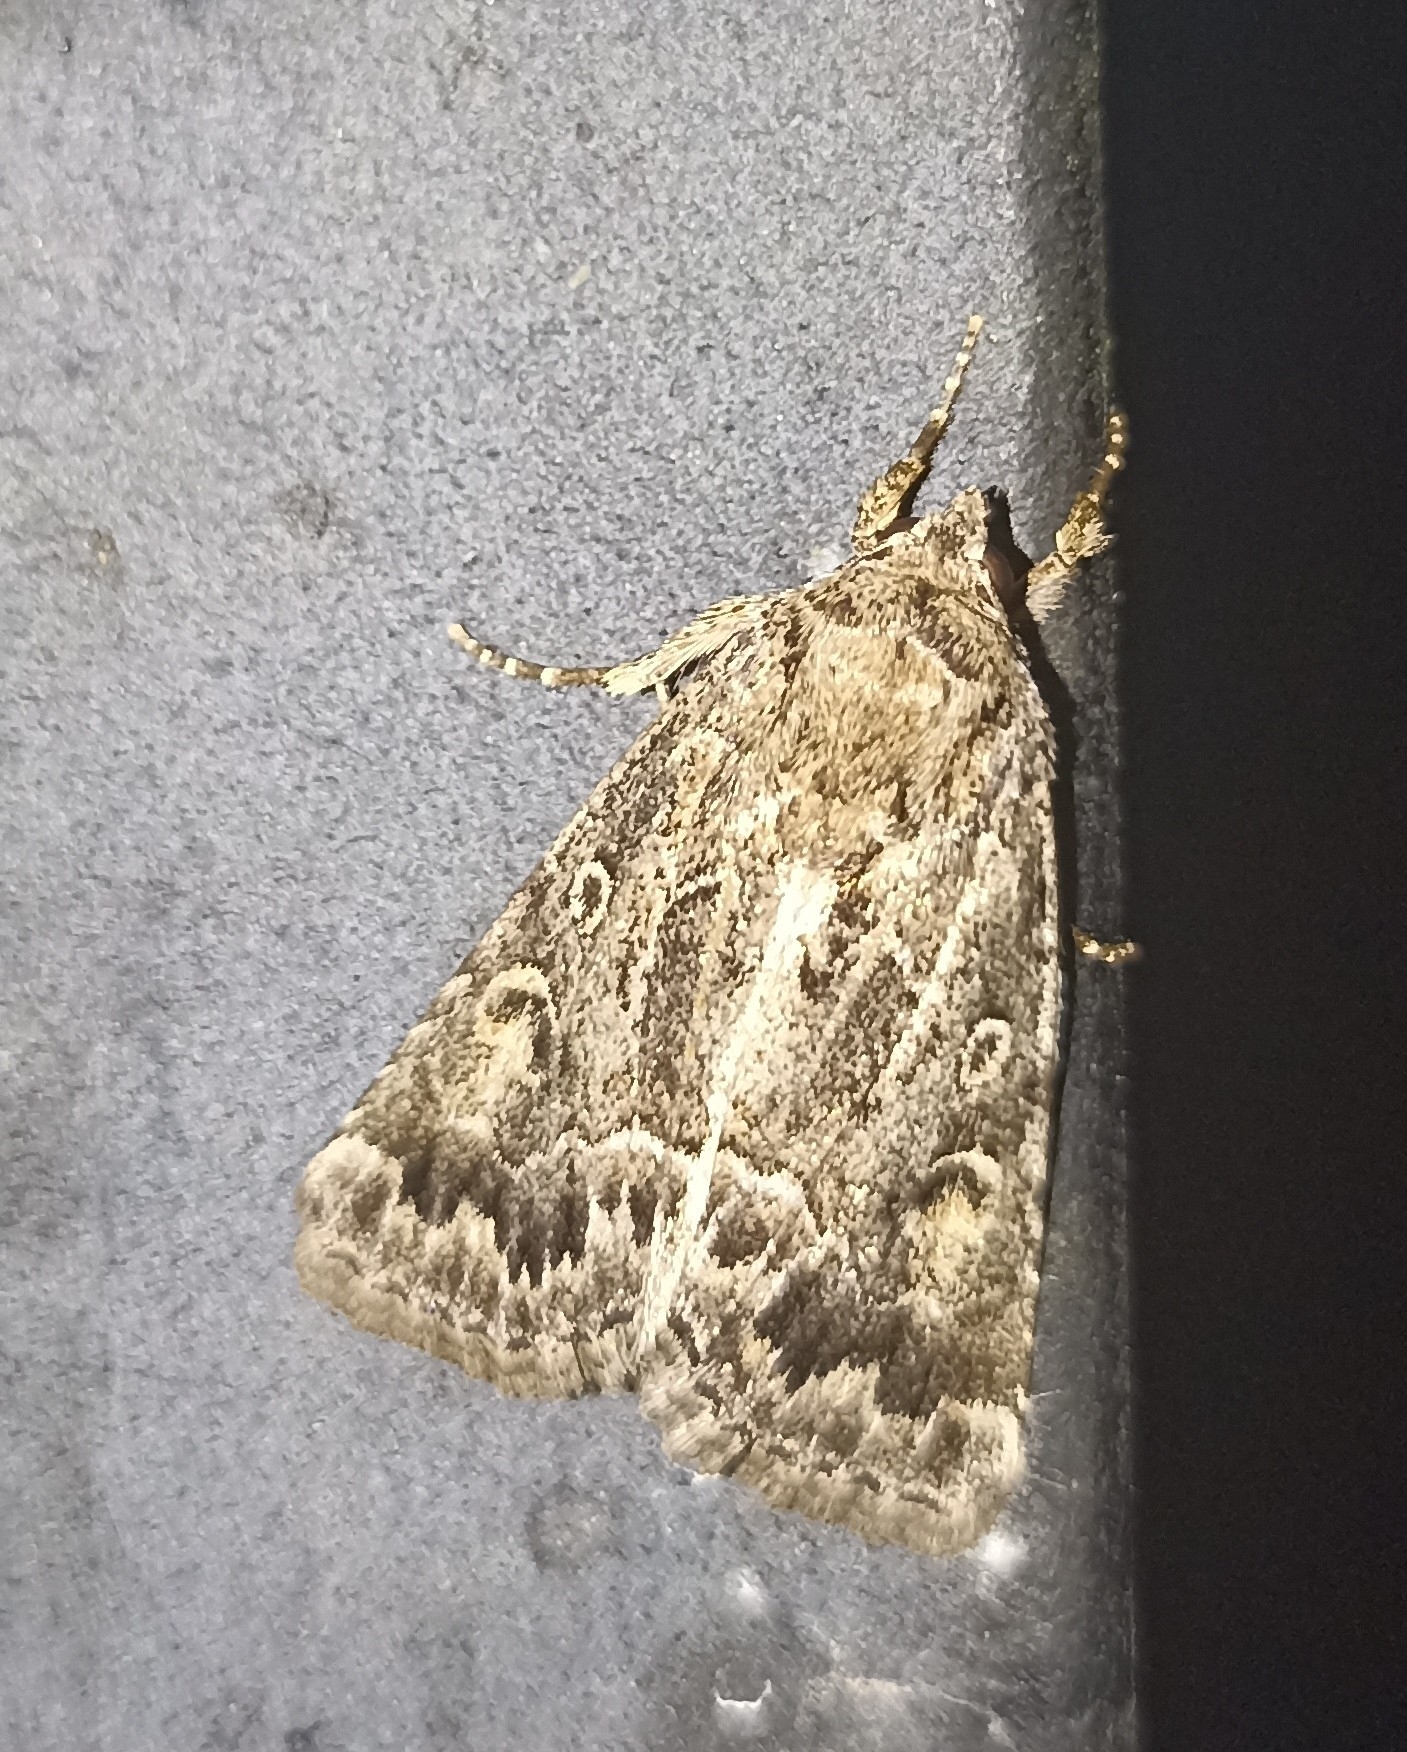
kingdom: Animalia
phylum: Arthropoda
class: Insecta
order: Lepidoptera
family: Noctuidae
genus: Thalpophila
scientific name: Thalpophila matura
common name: Straw underwing
